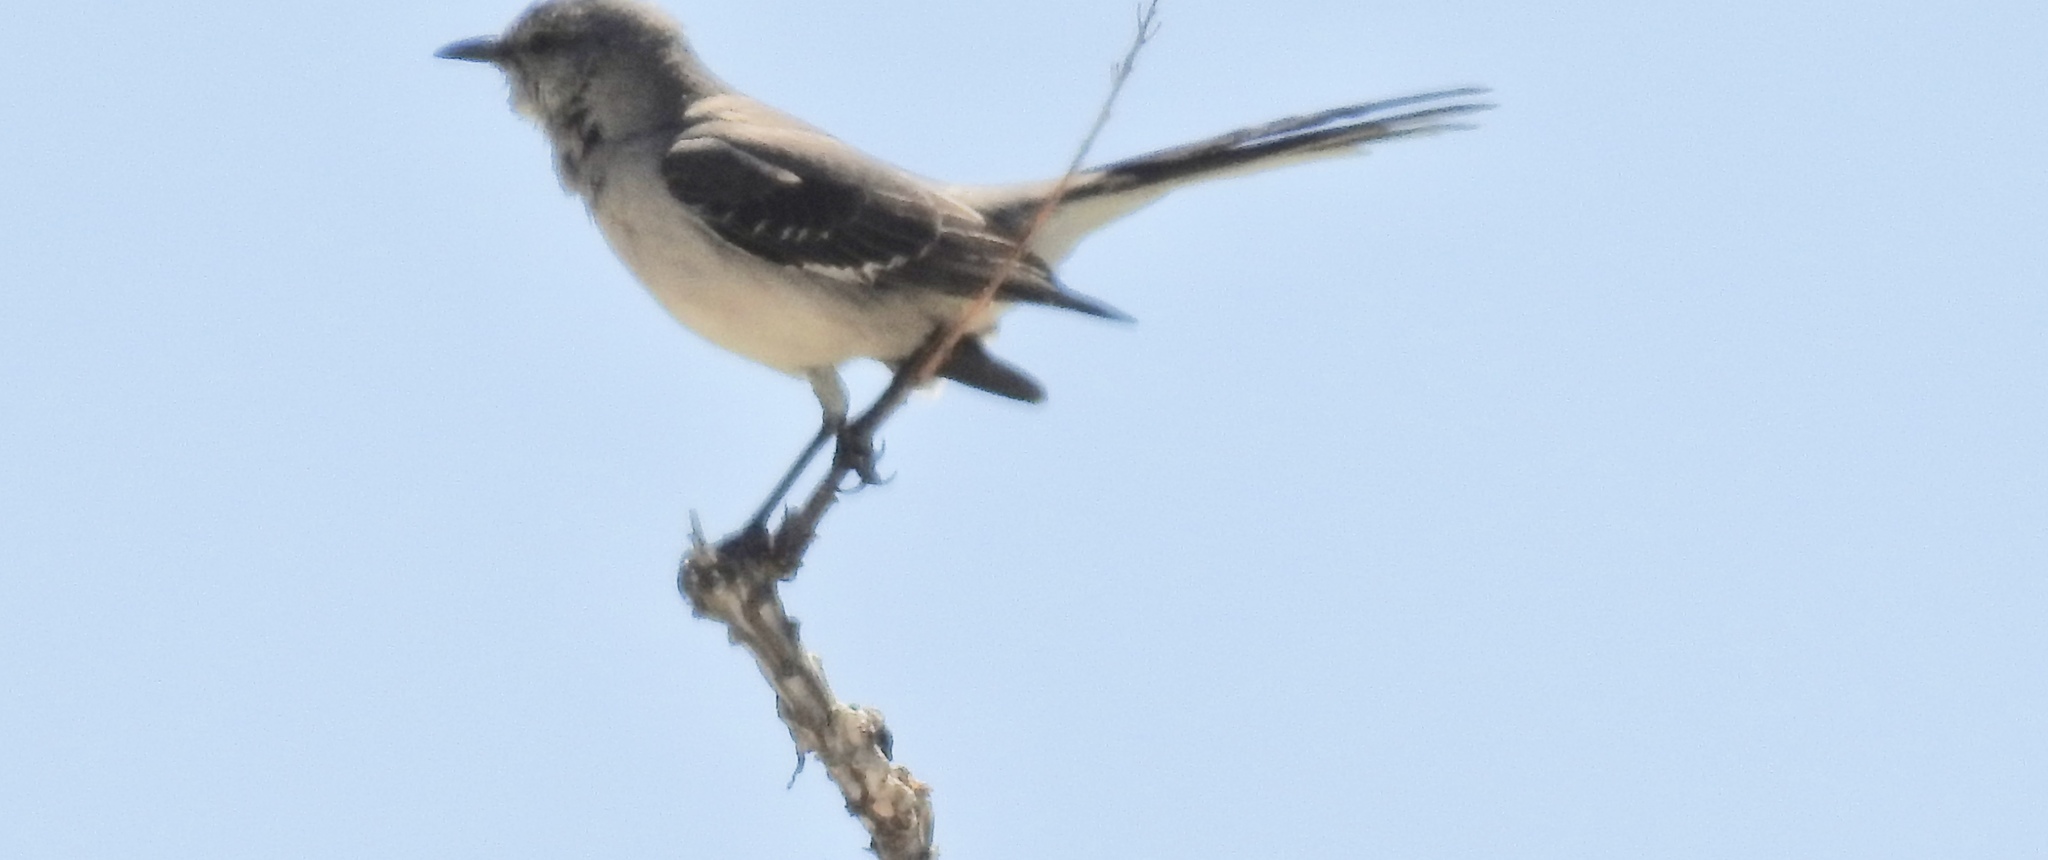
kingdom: Animalia
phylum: Chordata
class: Aves
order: Passeriformes
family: Mimidae
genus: Mimus
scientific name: Mimus polyglottos
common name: Northern mockingbird
